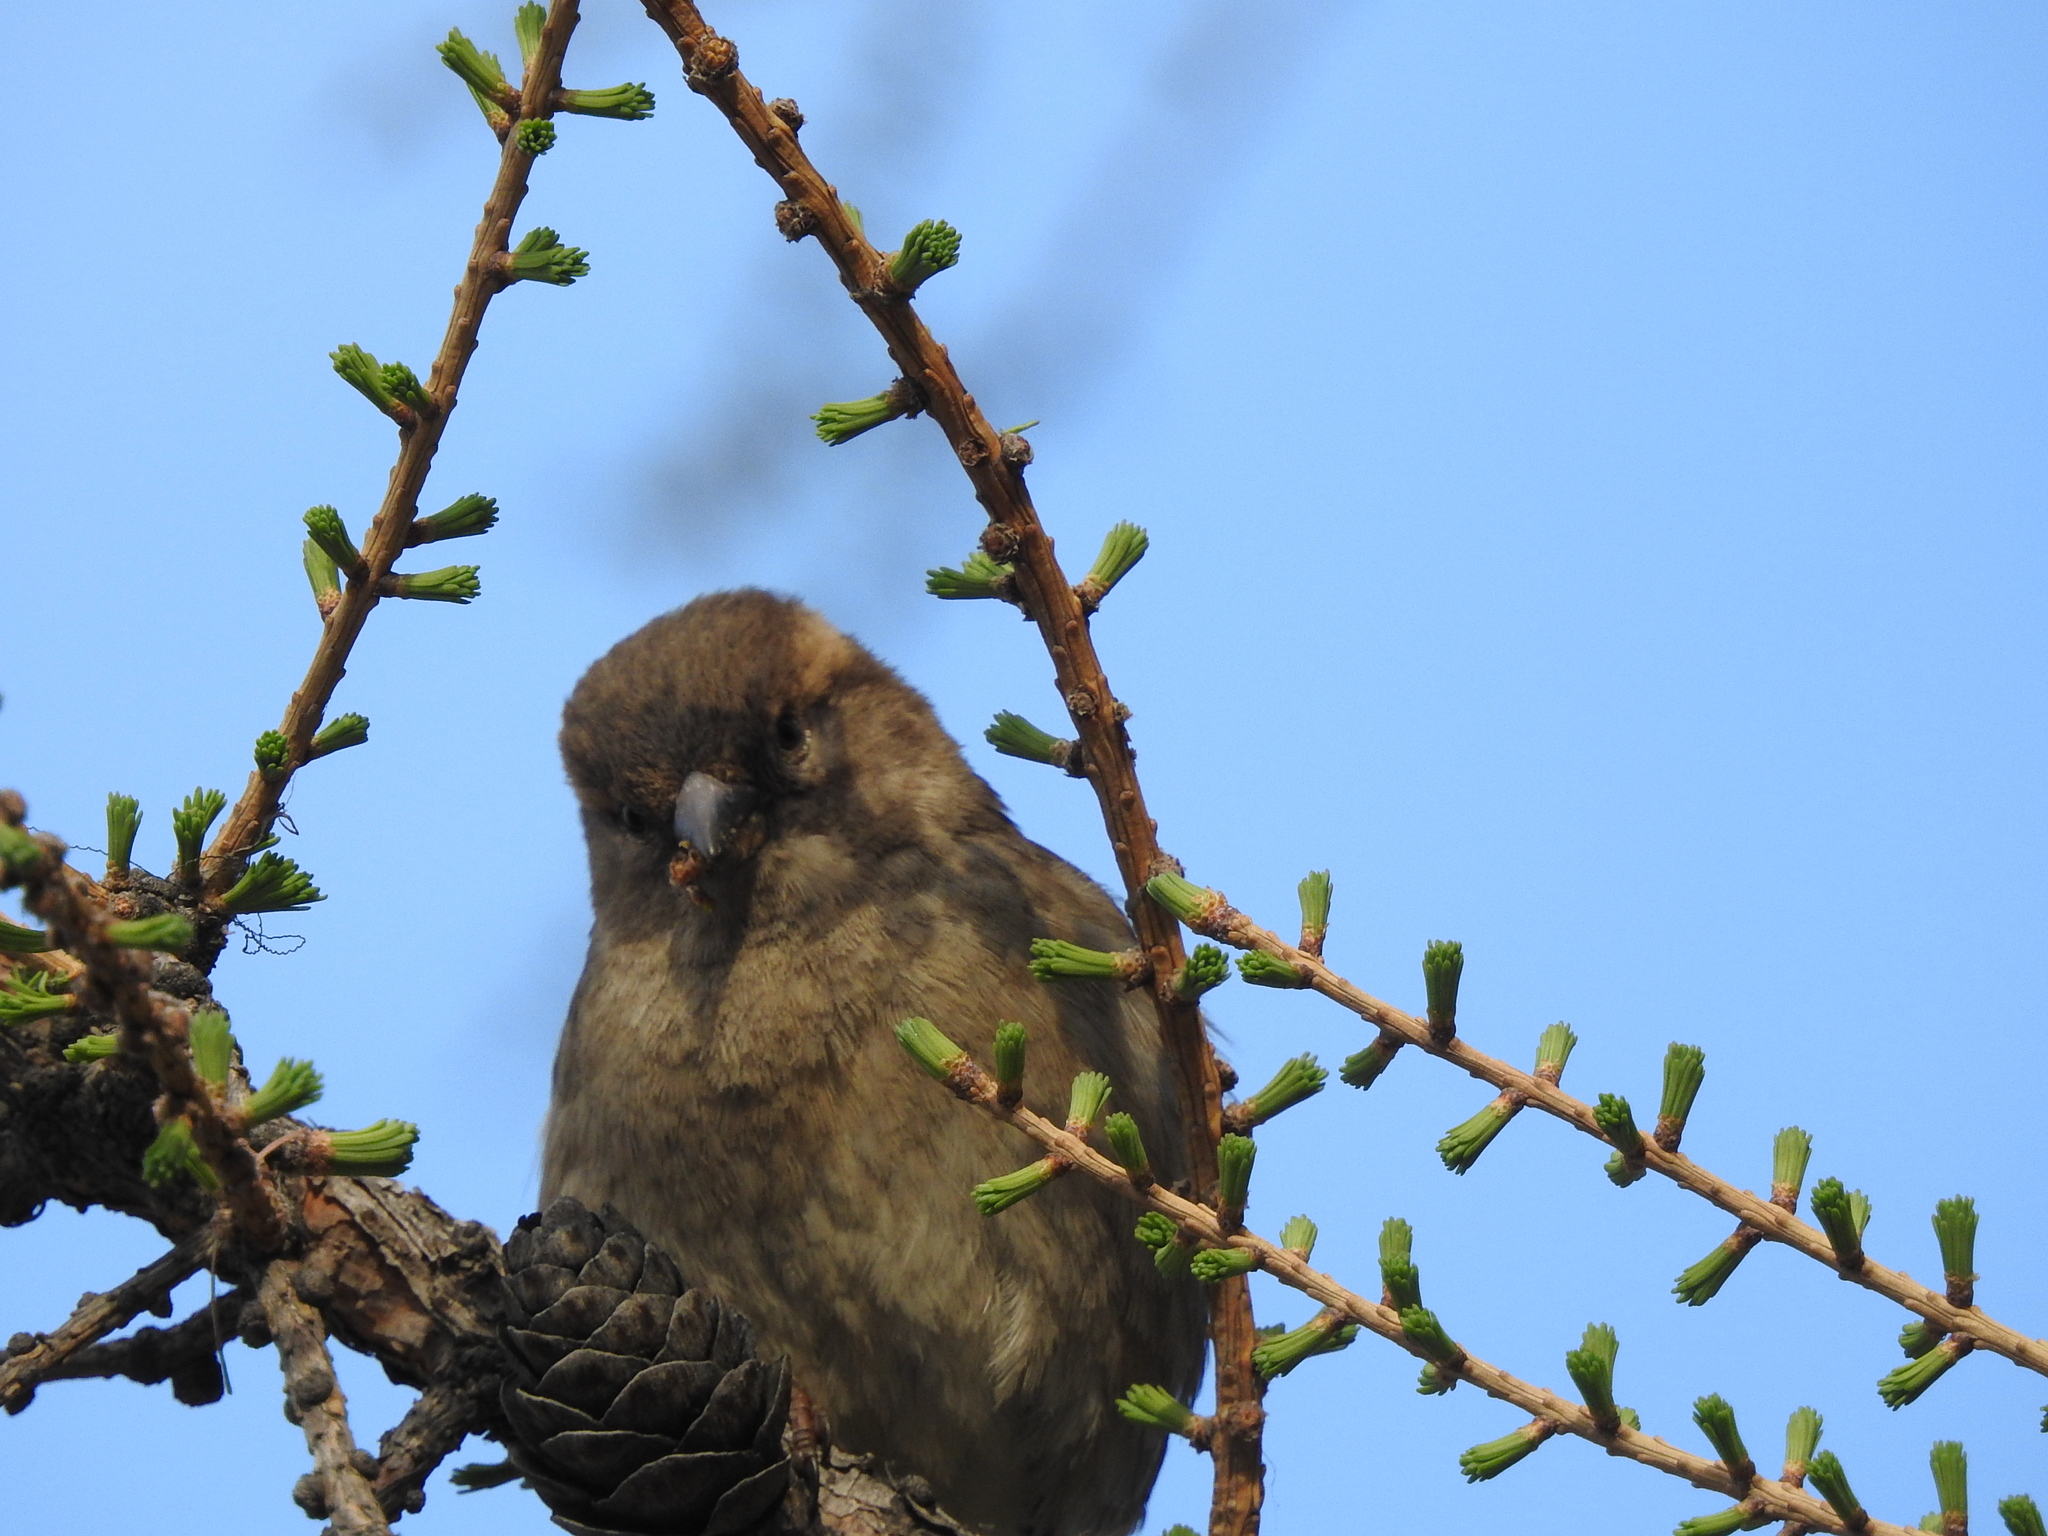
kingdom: Animalia
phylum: Chordata
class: Aves
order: Passeriformes
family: Passeridae
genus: Passer
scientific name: Passer domesticus
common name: House sparrow
